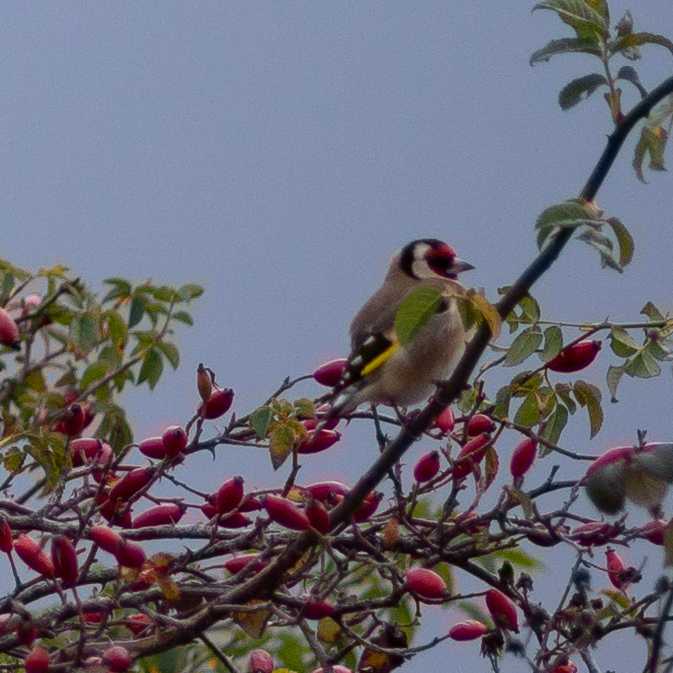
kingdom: Animalia
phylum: Chordata
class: Aves
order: Passeriformes
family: Fringillidae
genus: Carduelis
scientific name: Carduelis carduelis
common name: European goldfinch
